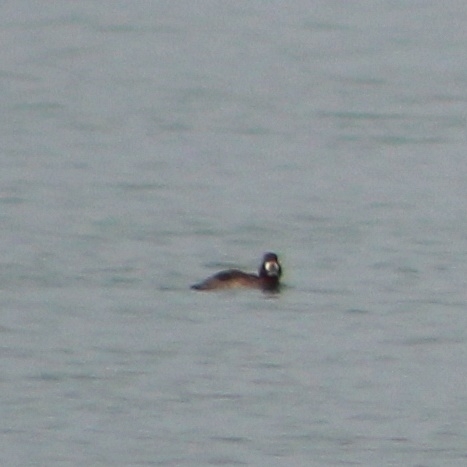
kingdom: Animalia
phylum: Chordata
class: Aves
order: Anseriformes
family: Anatidae
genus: Aythya
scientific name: Aythya marila
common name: Greater scaup
